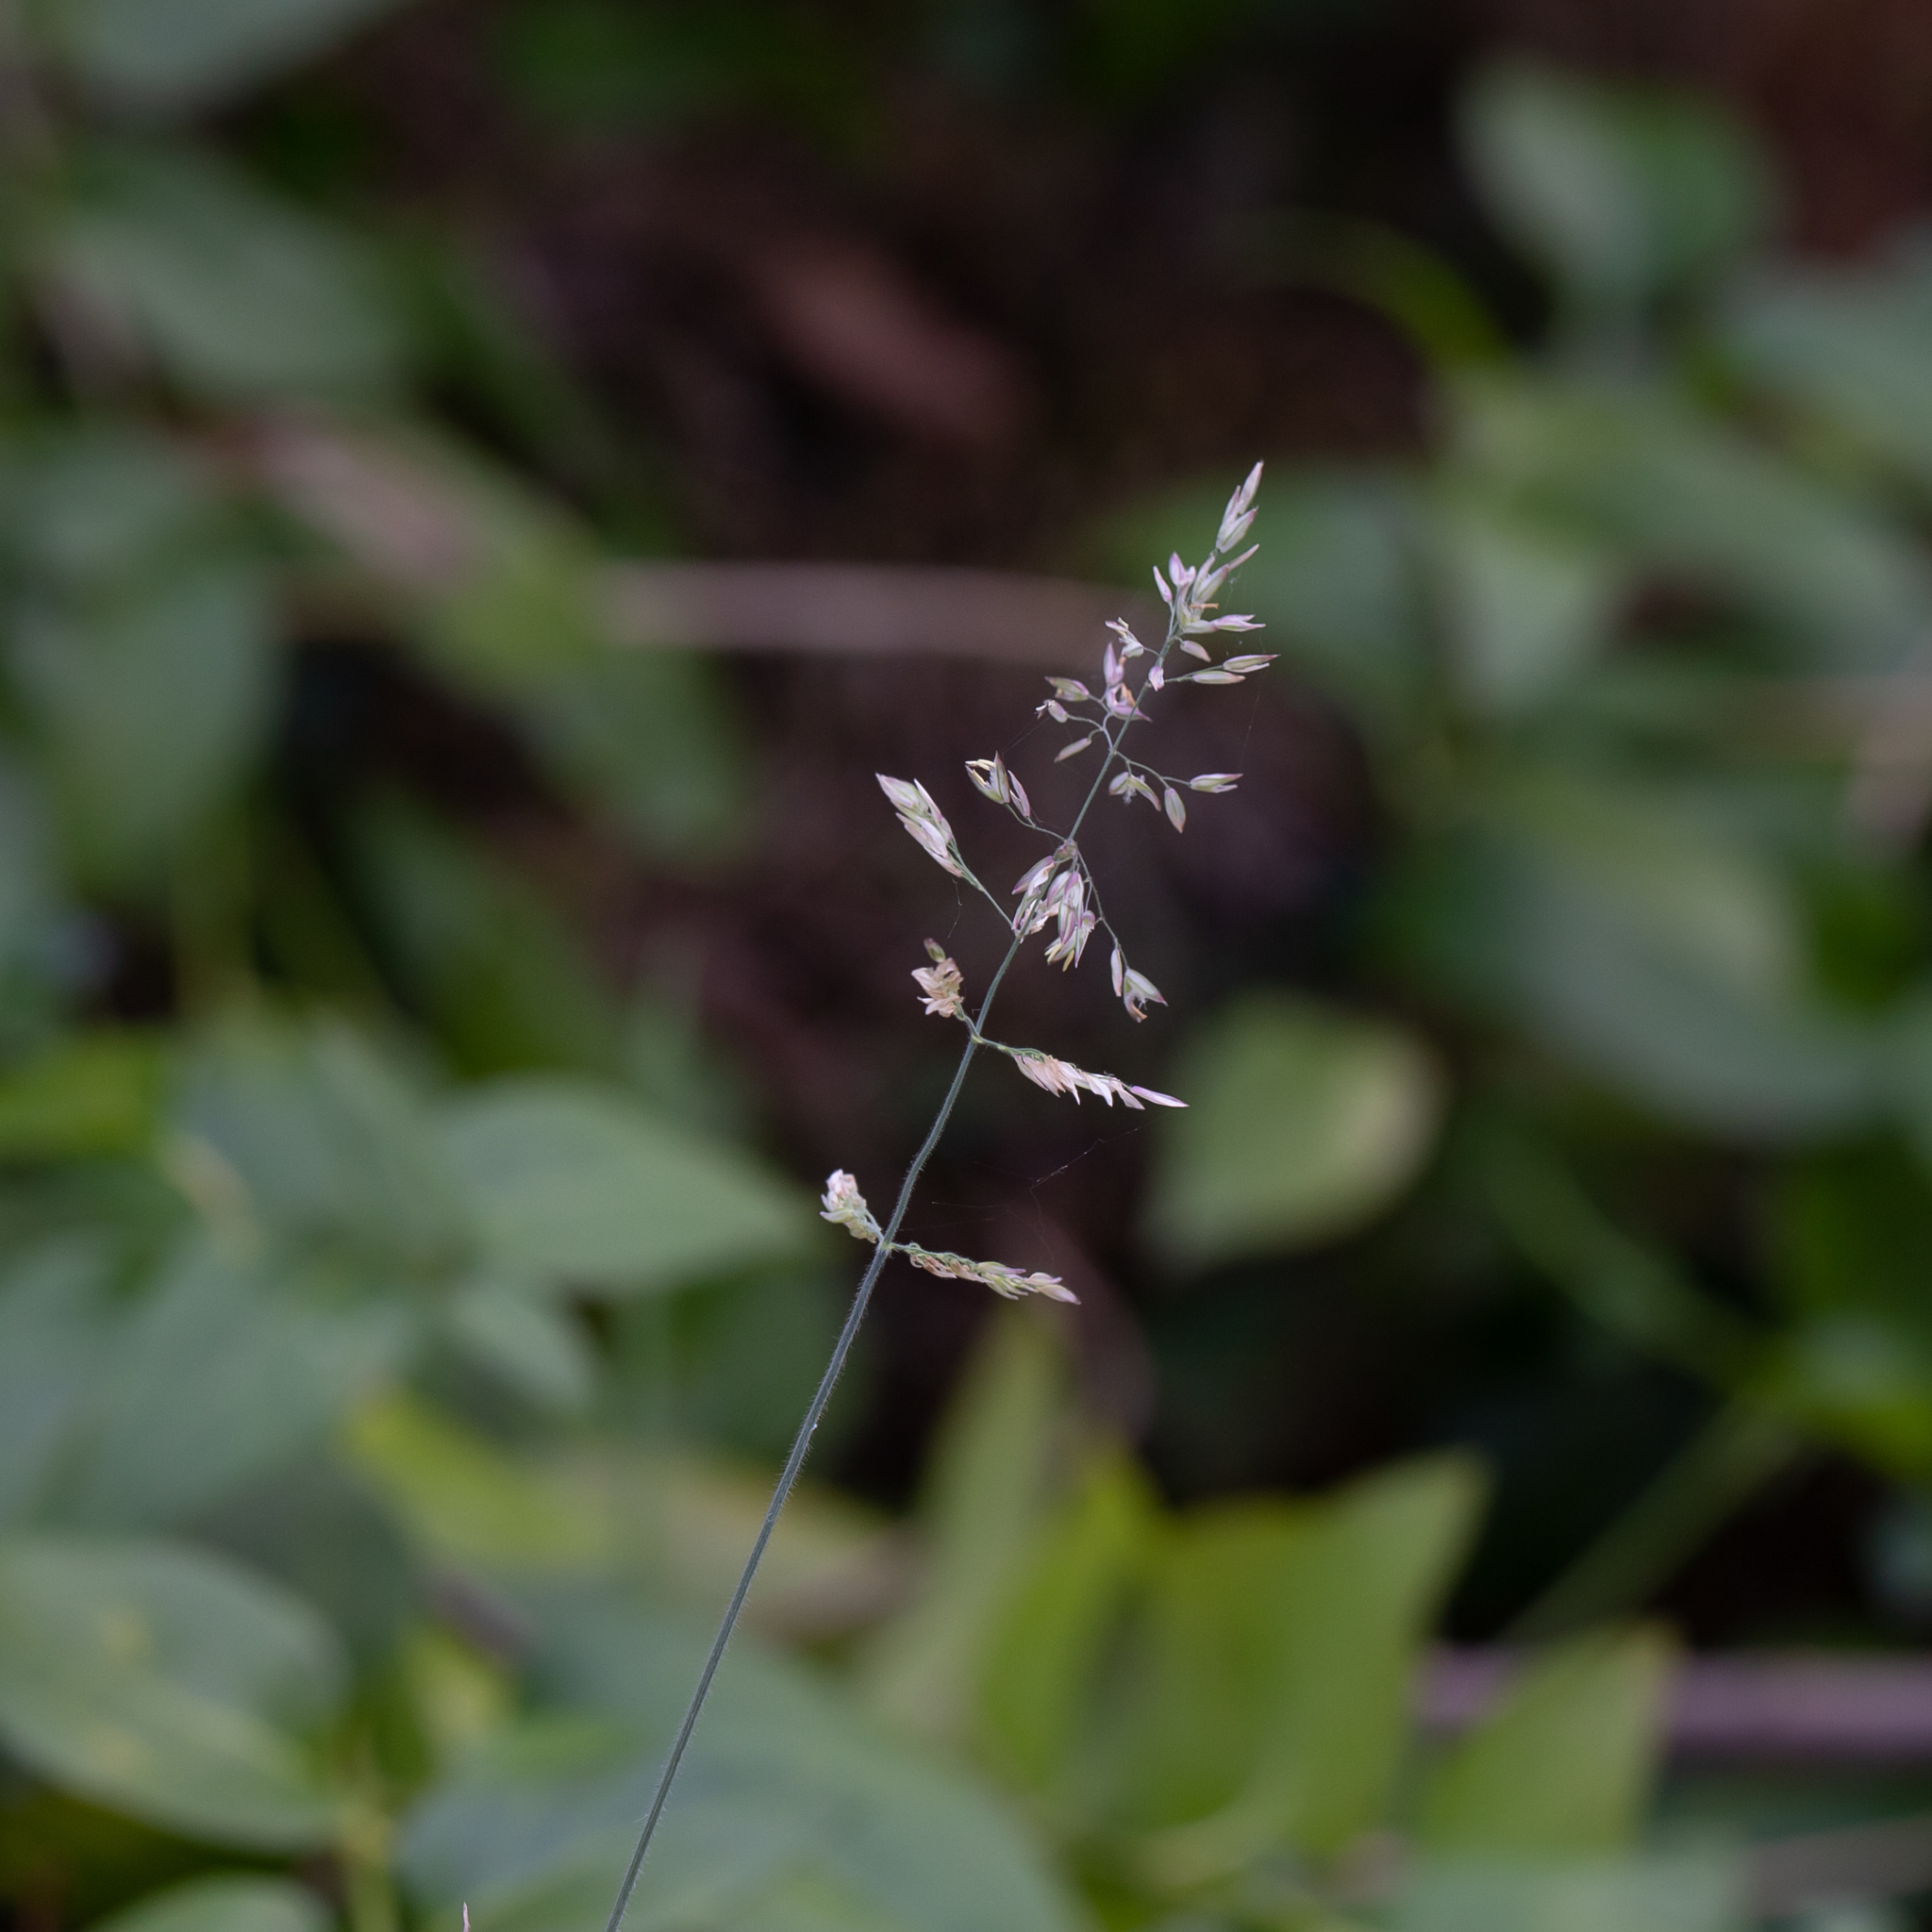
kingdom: Plantae
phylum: Tracheophyta
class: Liliopsida
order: Poales
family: Poaceae
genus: Holcus
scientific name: Holcus lanatus
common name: Yorkshire-fog
